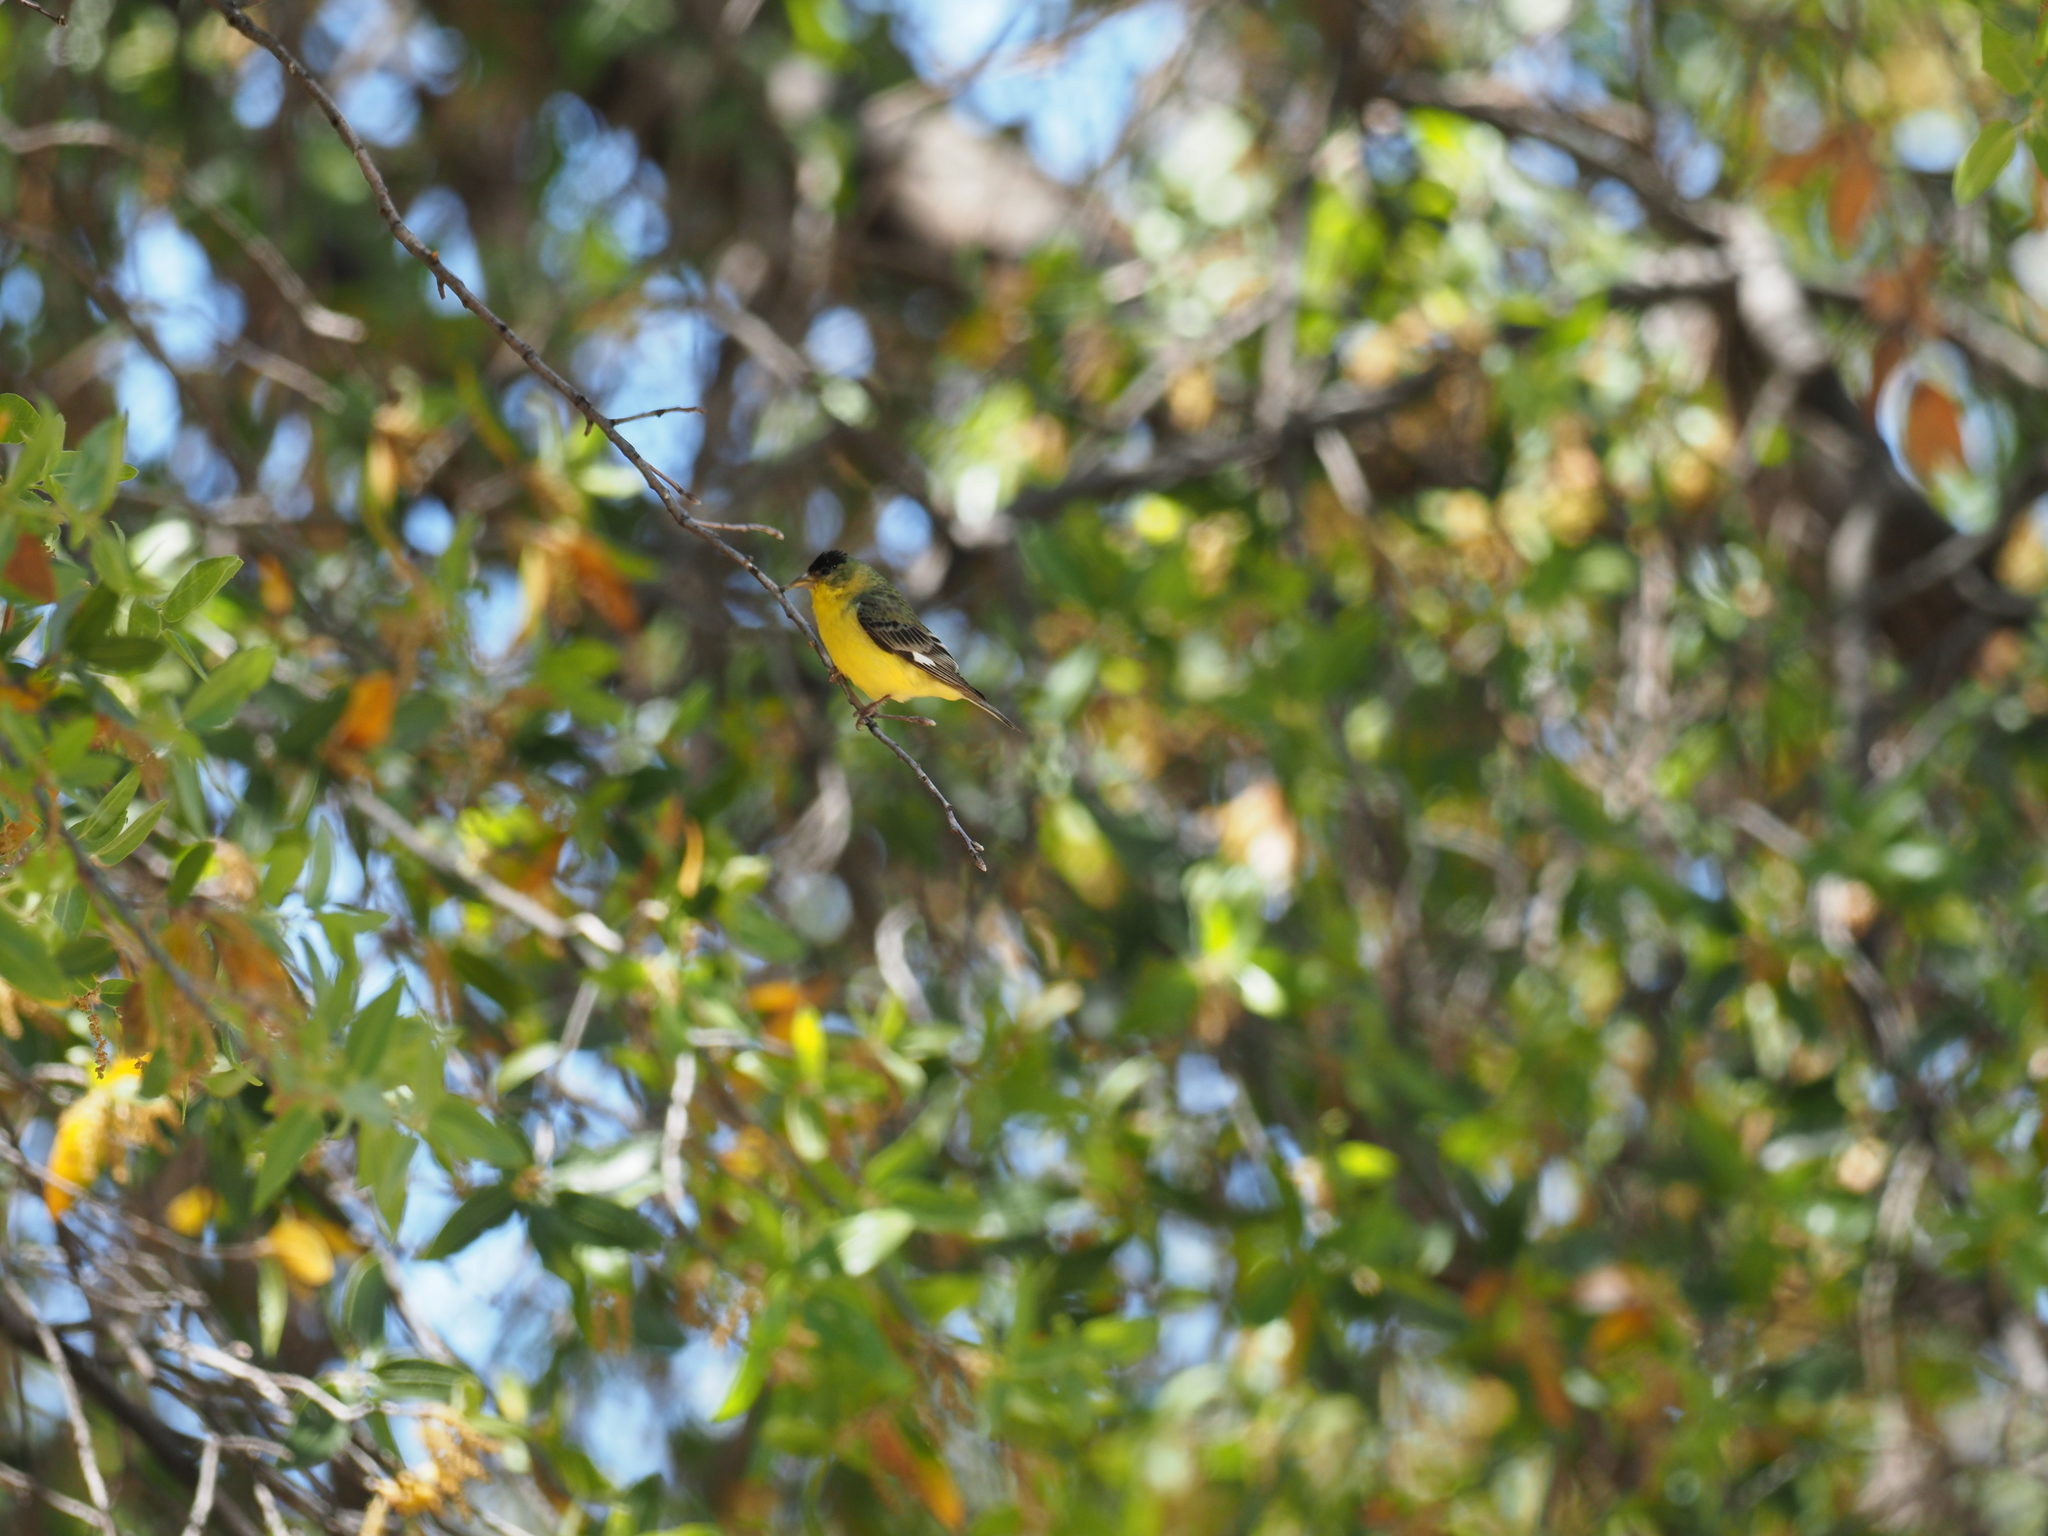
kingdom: Animalia
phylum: Chordata
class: Aves
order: Passeriformes
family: Fringillidae
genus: Spinus
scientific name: Spinus psaltria
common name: Lesser goldfinch
